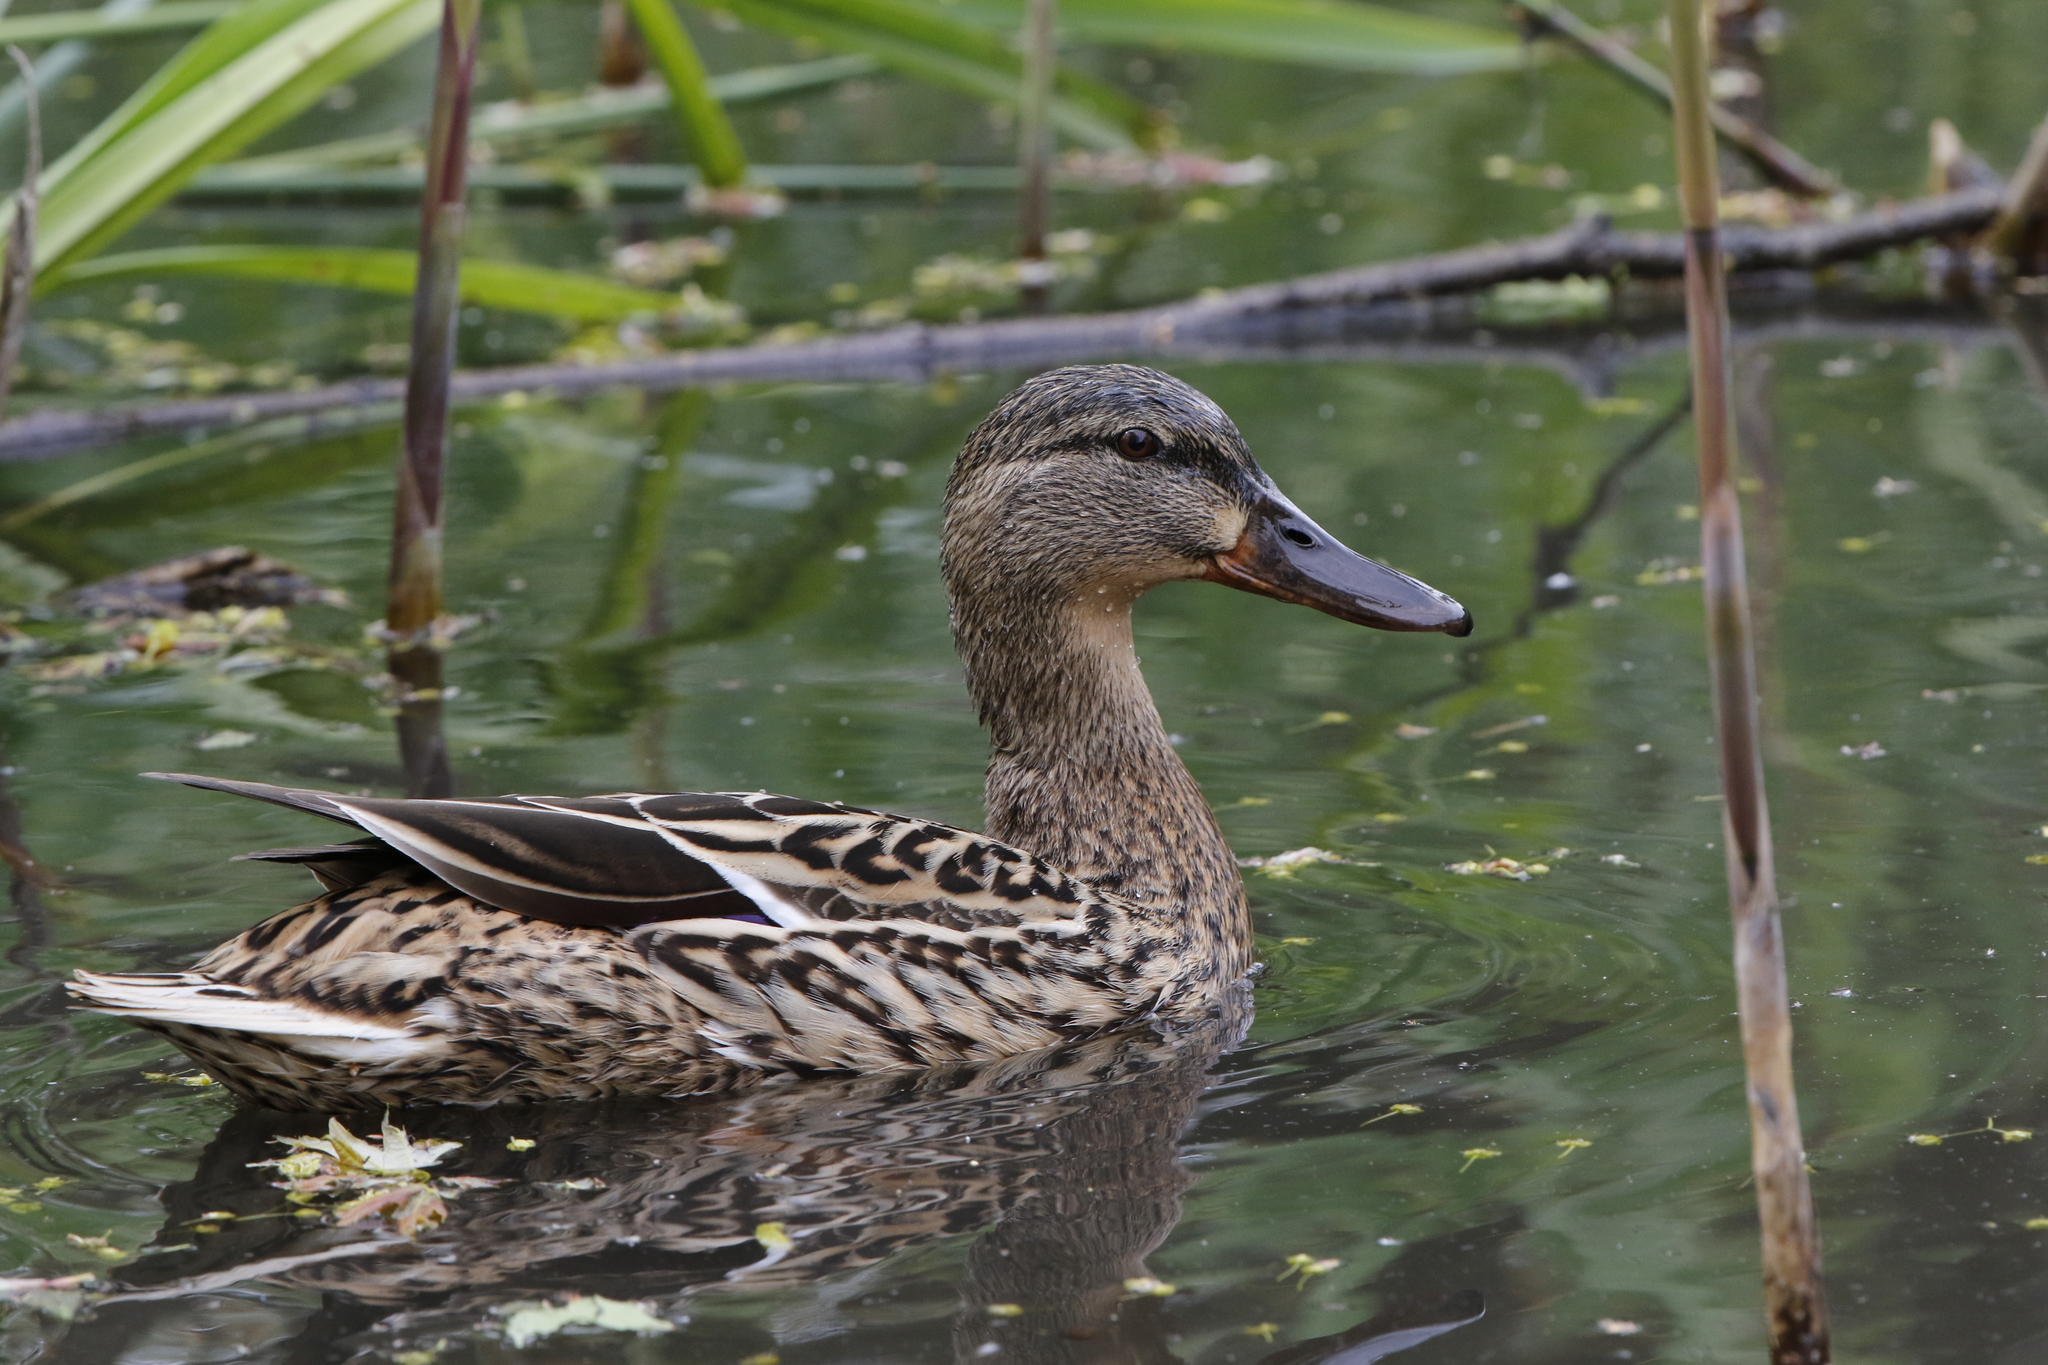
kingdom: Animalia
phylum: Chordata
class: Aves
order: Anseriformes
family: Anatidae
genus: Anas
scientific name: Anas platyrhynchos
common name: Mallard
